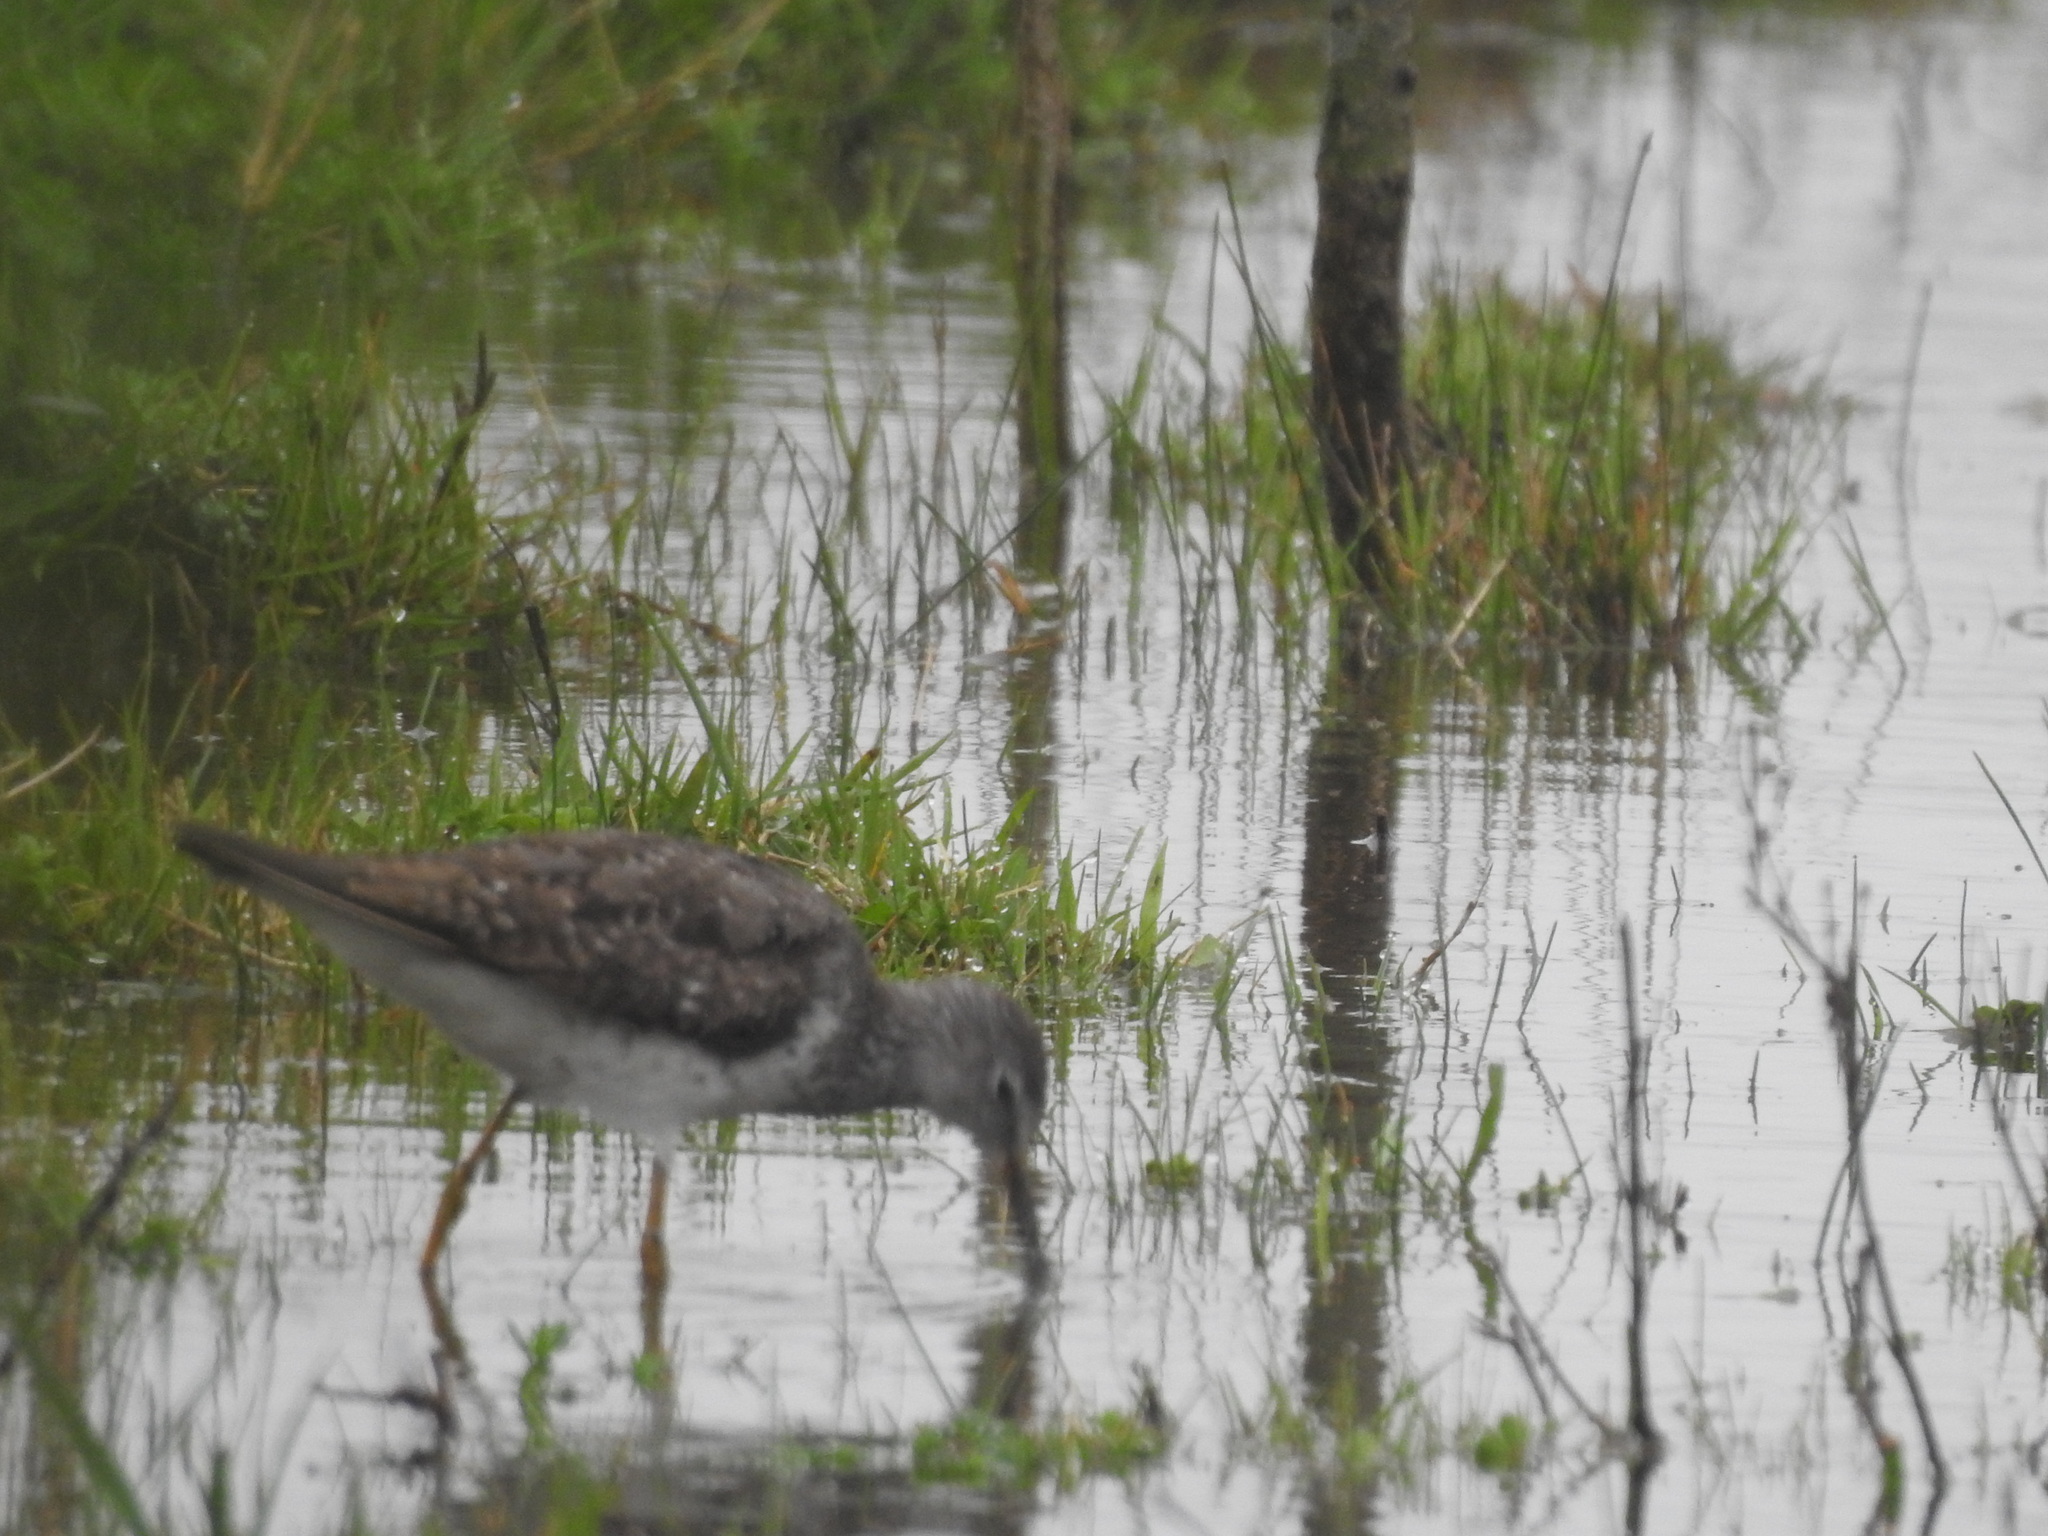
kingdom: Animalia
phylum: Chordata
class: Aves
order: Charadriiformes
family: Scolopacidae
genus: Tringa
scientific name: Tringa flavipes
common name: Lesser yellowlegs
